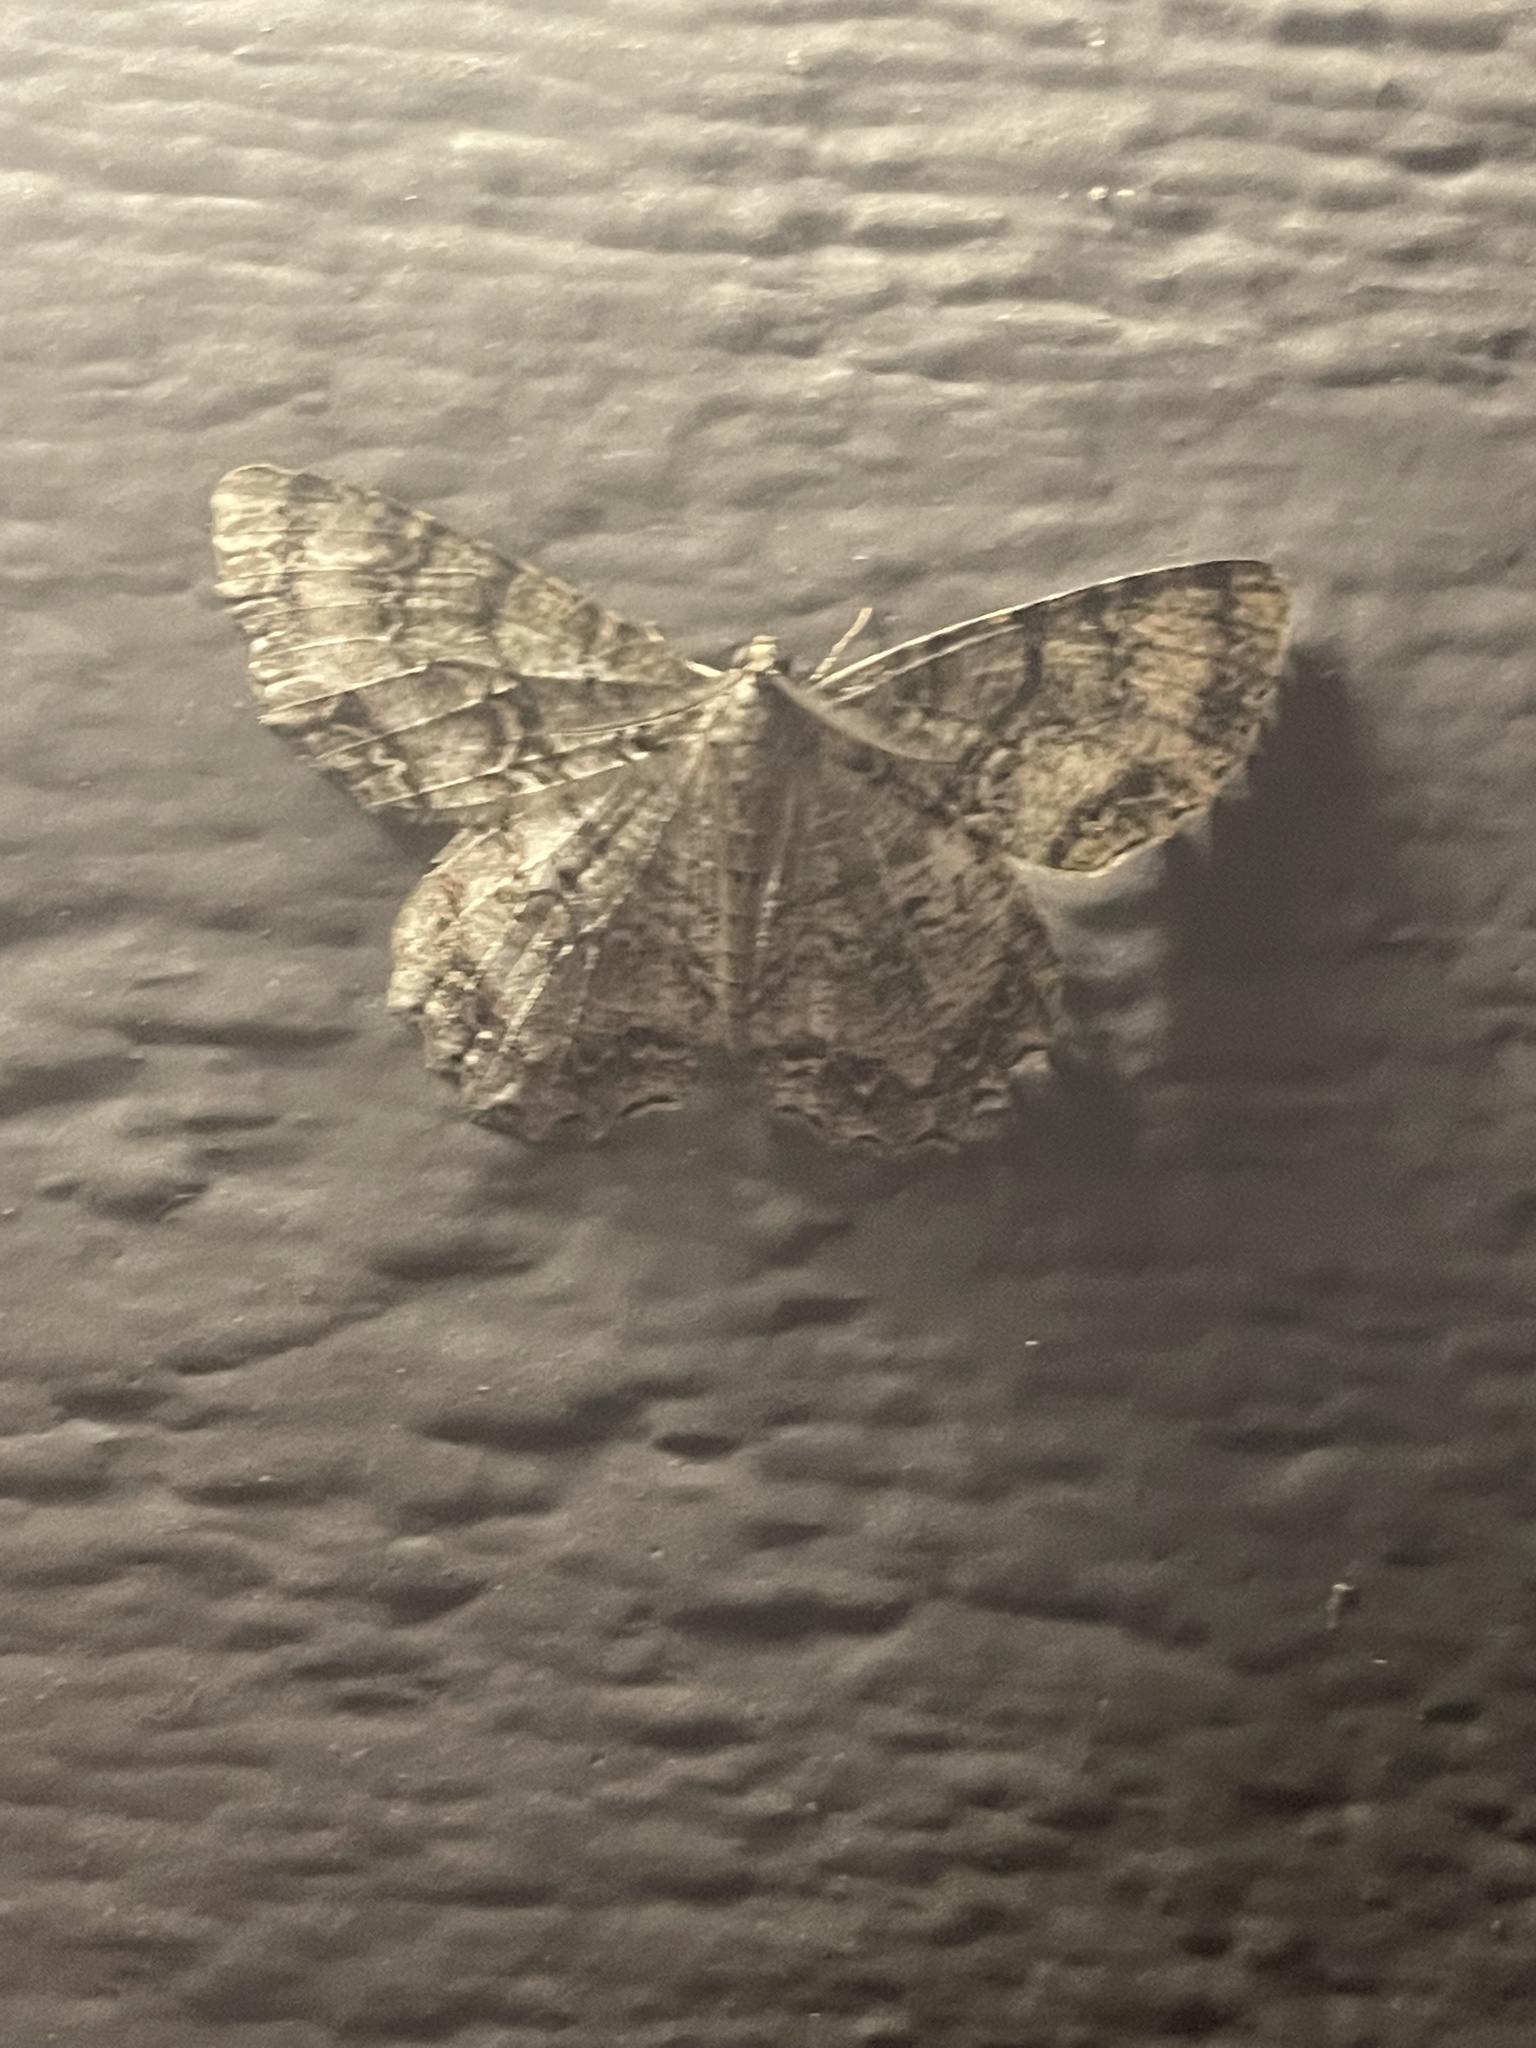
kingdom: Animalia
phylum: Arthropoda
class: Insecta
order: Lepidoptera
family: Geometridae
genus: Epimecis
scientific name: Epimecis hortaria
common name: Tulip-tree beauty
